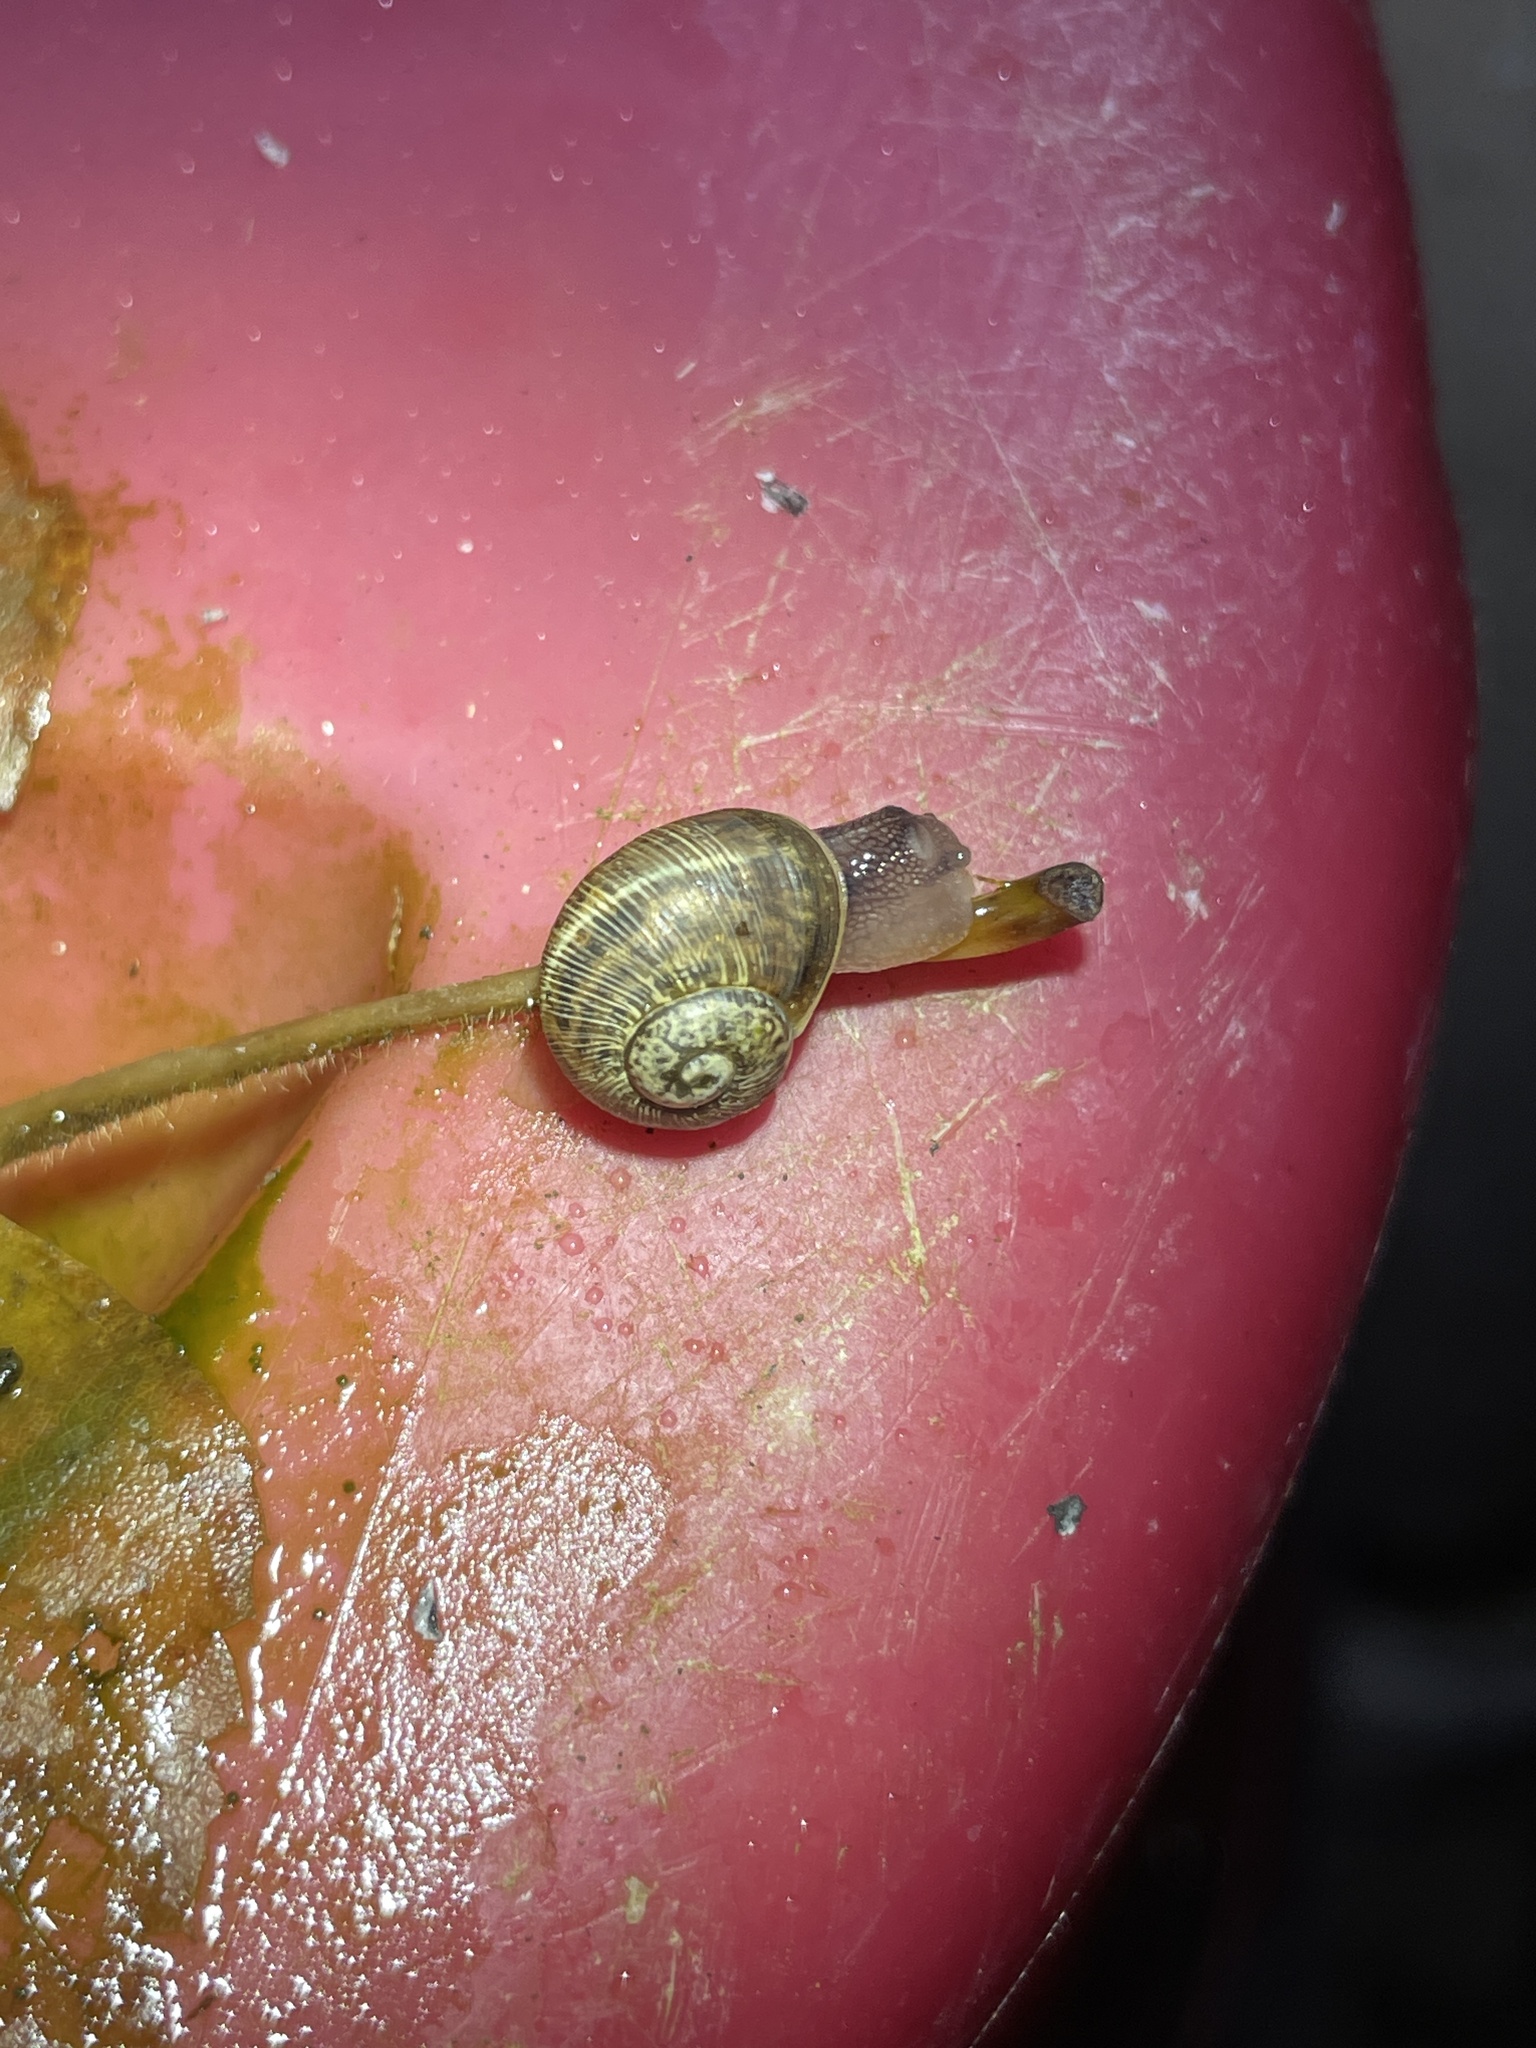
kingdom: Animalia
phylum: Mollusca
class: Gastropoda
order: Stylommatophora
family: Helicidae
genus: Cornu
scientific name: Cornu aspersum
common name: Brown garden snail
